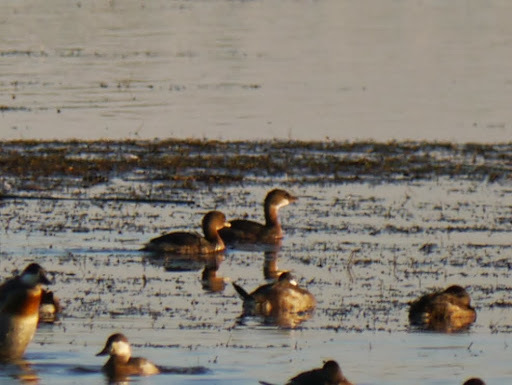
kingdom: Animalia
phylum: Chordata
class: Aves
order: Podicipediformes
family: Podicipedidae
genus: Podilymbus
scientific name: Podilymbus podiceps
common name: Pied-billed grebe
